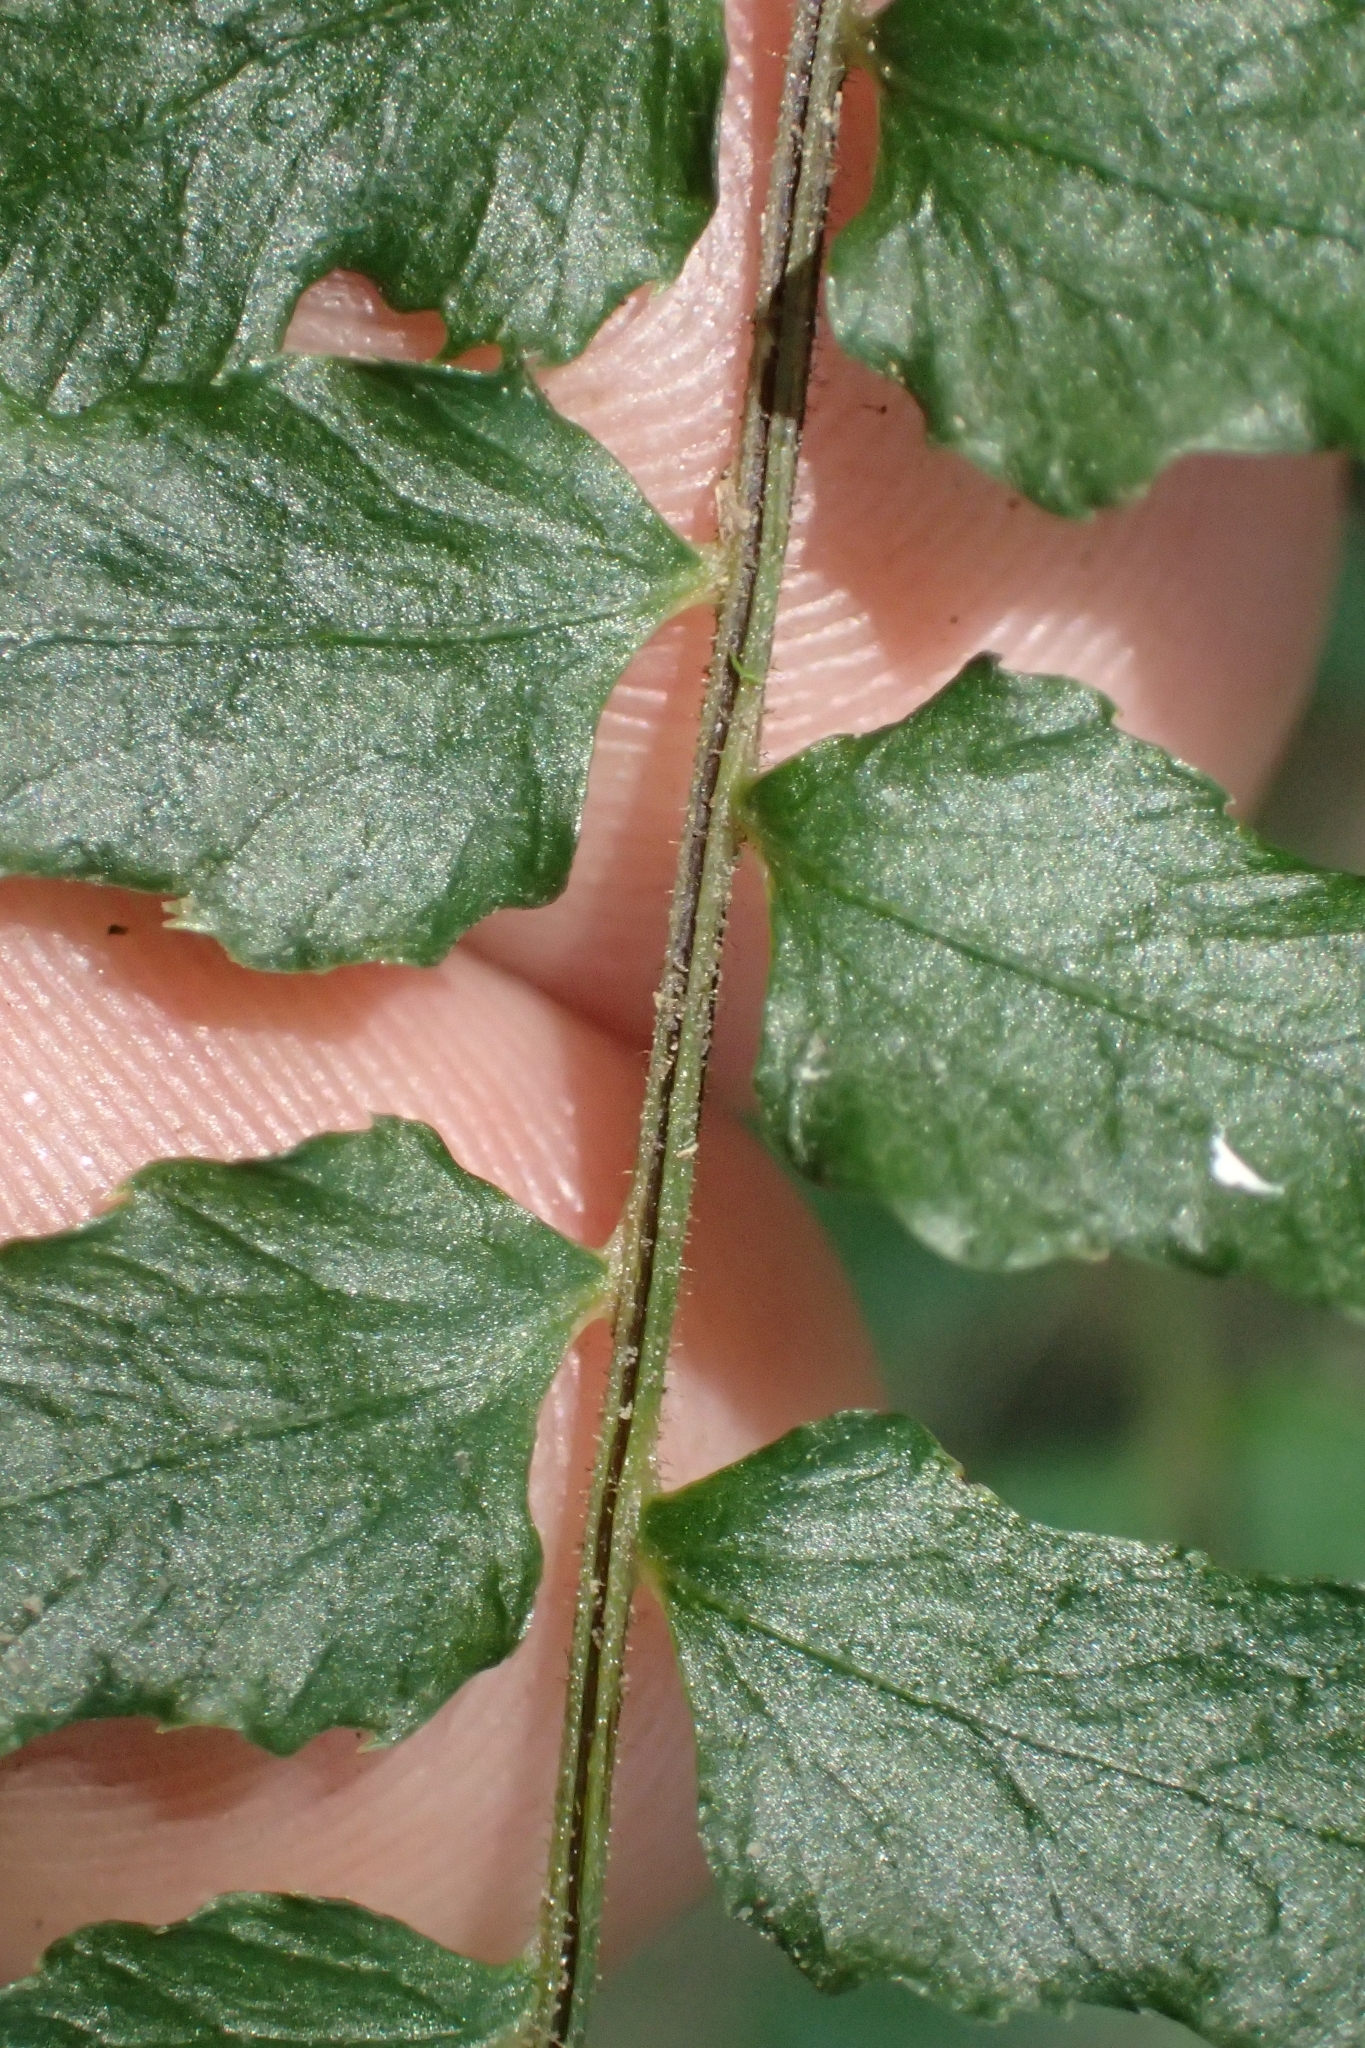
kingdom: Plantae
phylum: Tracheophyta
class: Polypodiopsida
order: Polypodiales
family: Blechnaceae
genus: Doodia
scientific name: Doodia mollis
